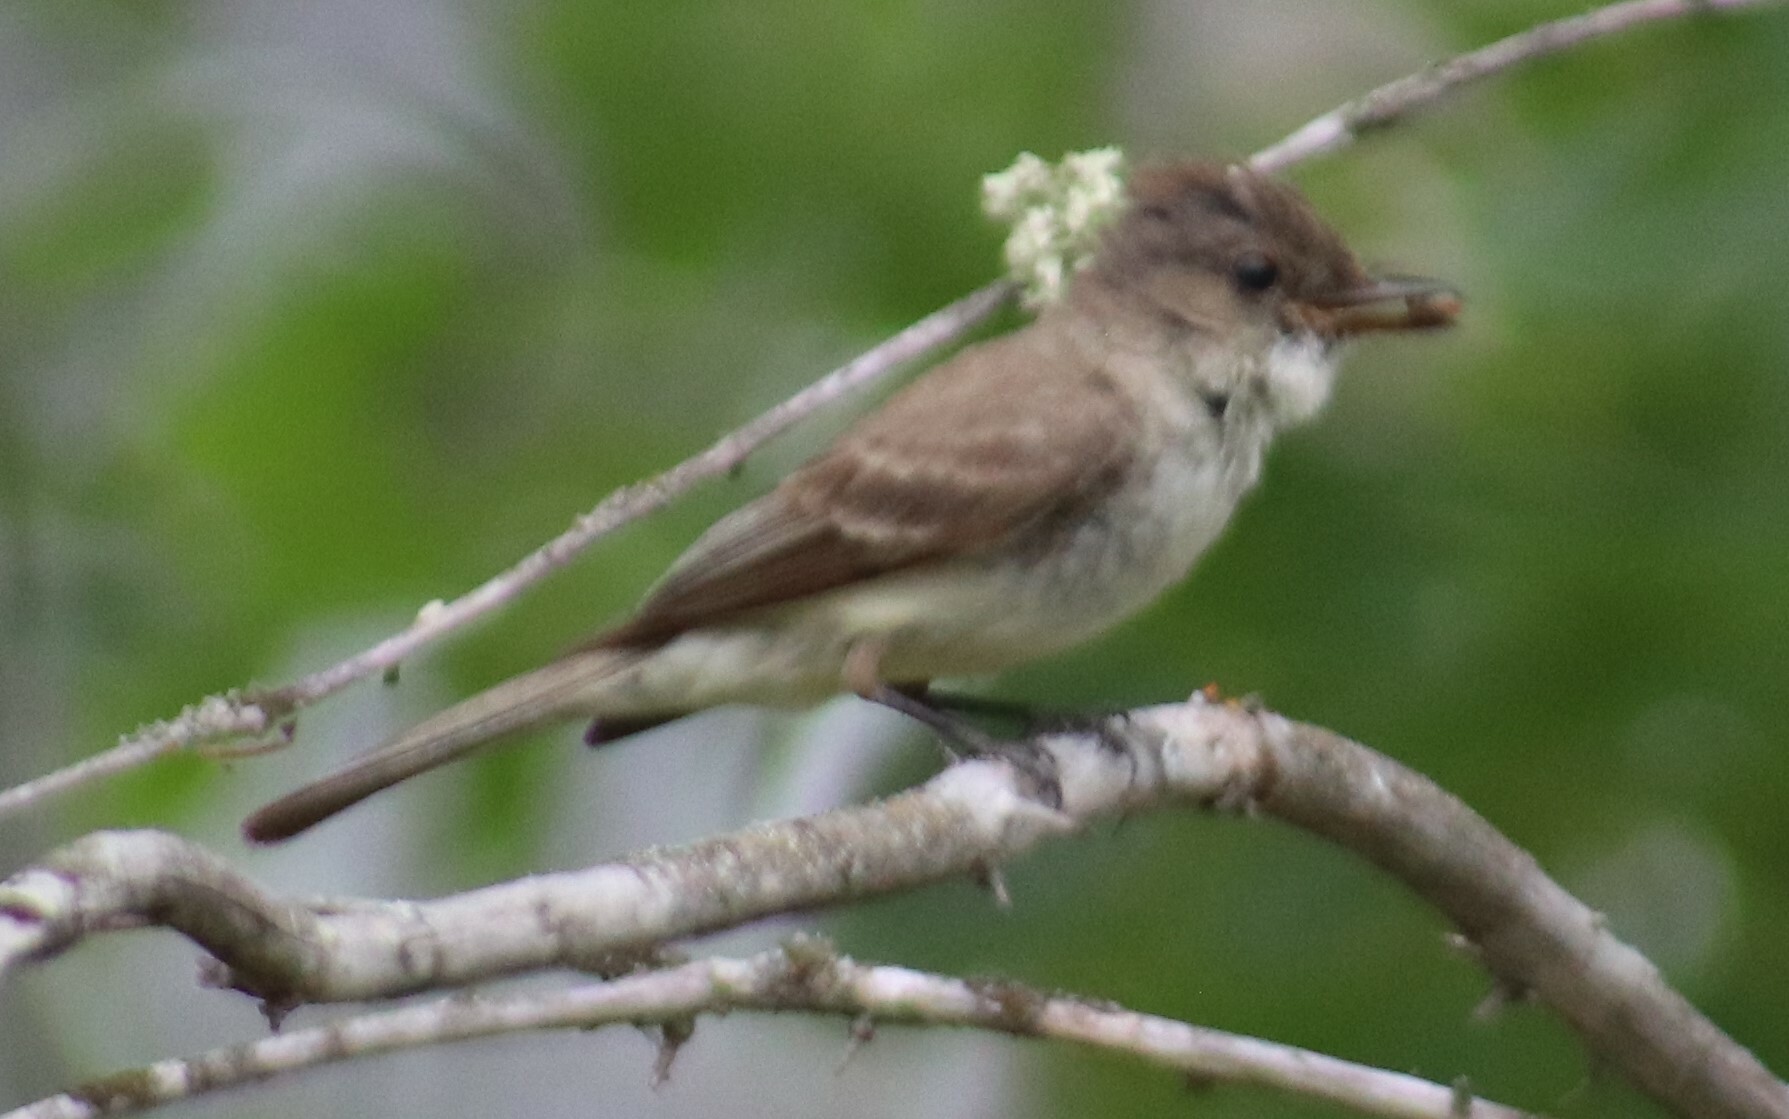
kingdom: Animalia
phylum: Chordata
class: Aves
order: Passeriformes
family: Tyrannidae
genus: Sayornis
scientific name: Sayornis phoebe
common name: Eastern phoebe
